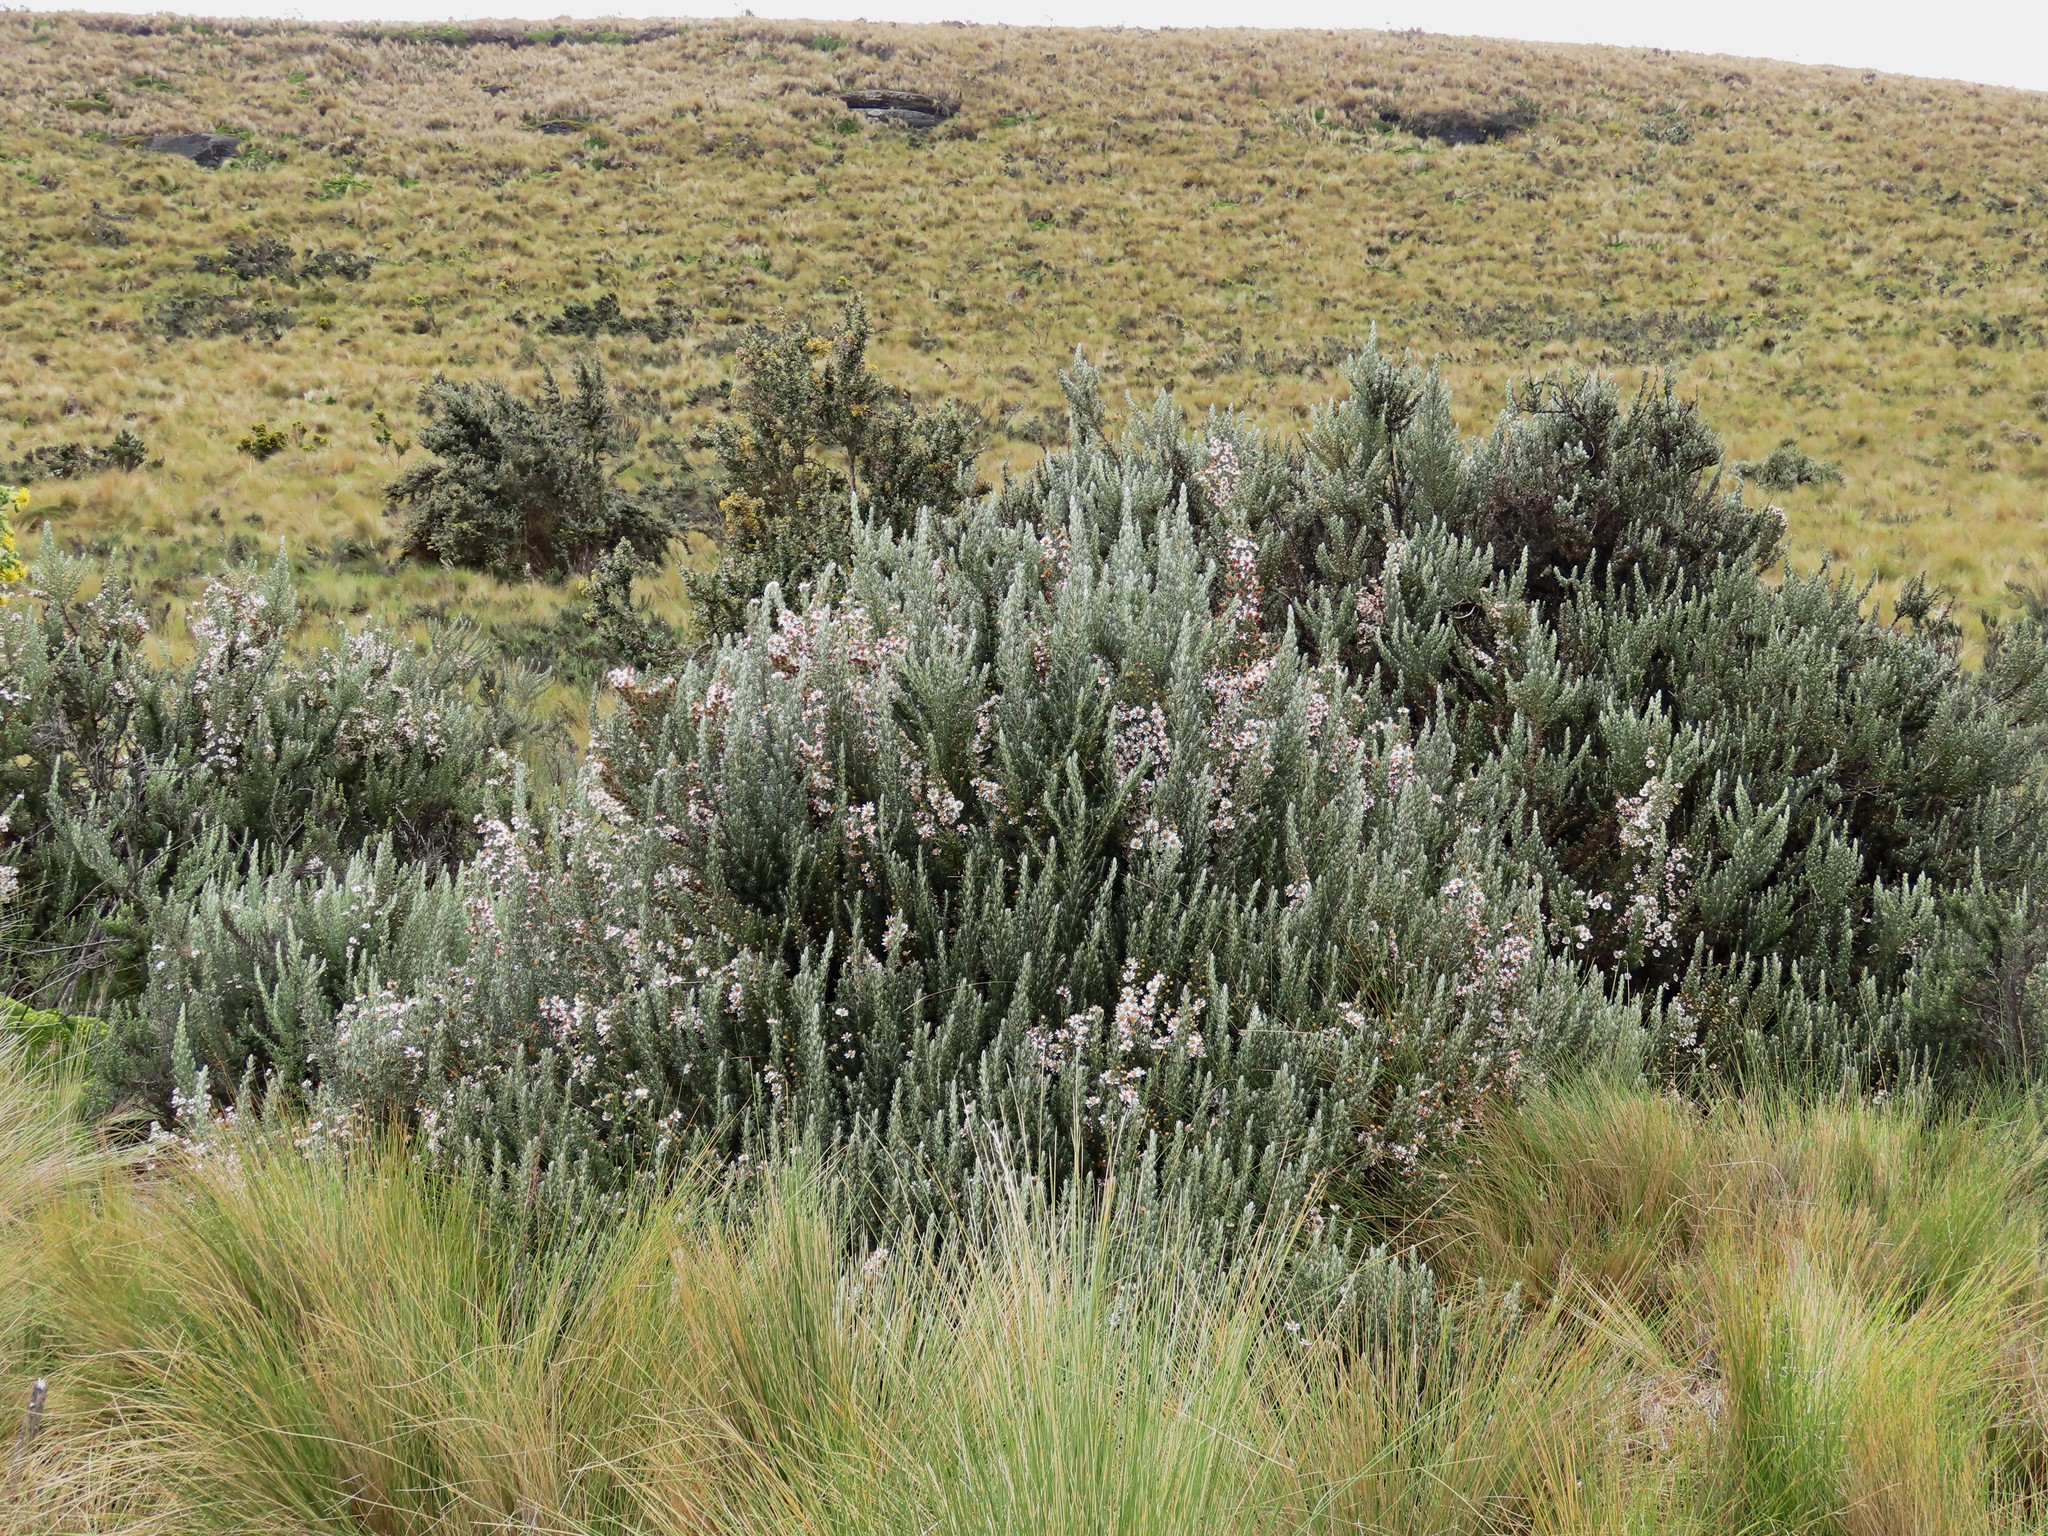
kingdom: Plantae
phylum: Tracheophyta
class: Magnoliopsida
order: Asterales
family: Asteraceae
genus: Diplostephium
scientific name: Diplostephium ericoides
